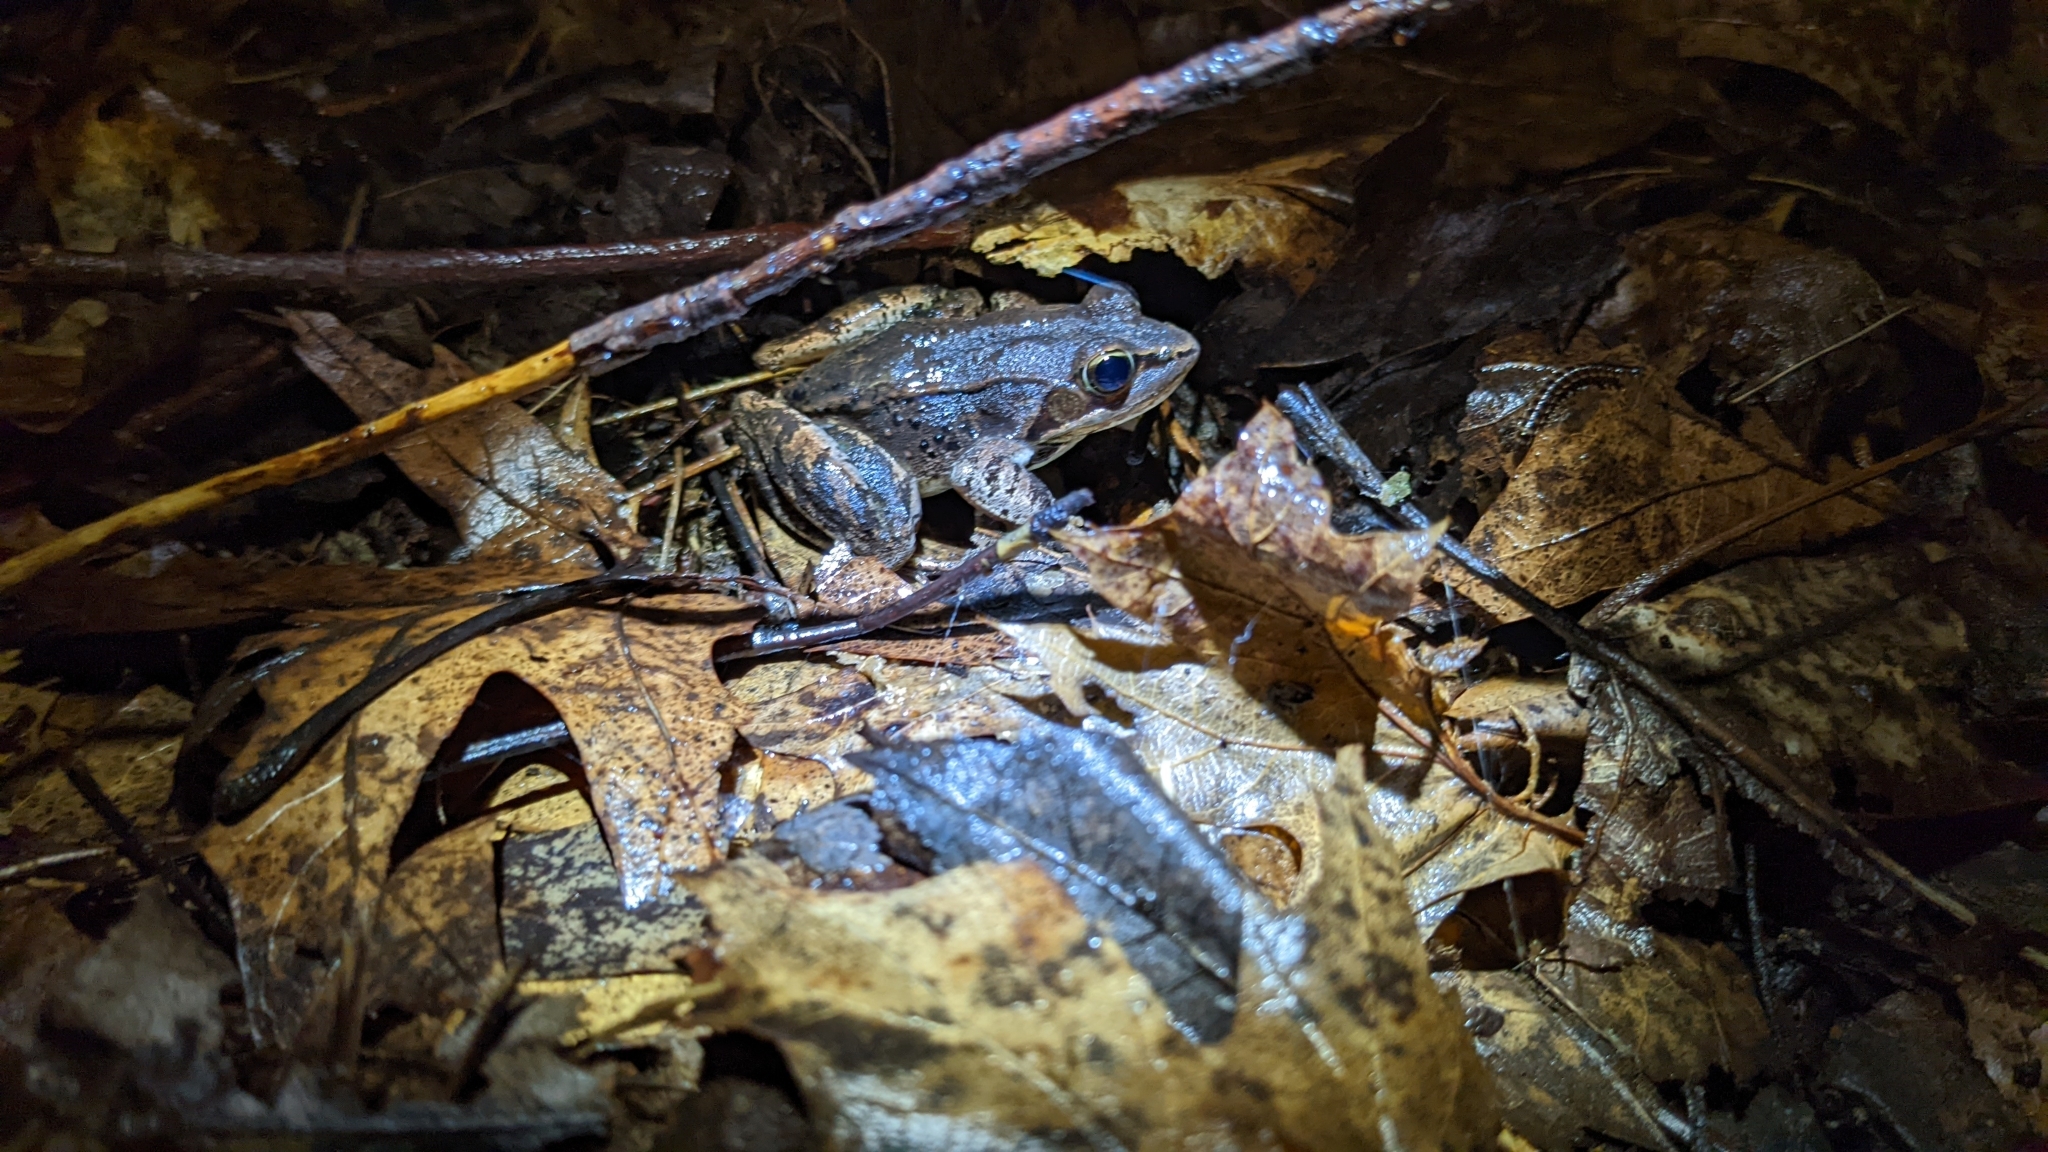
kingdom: Animalia
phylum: Chordata
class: Amphibia
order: Anura
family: Ranidae
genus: Lithobates
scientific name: Lithobates sylvaticus
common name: Wood frog
